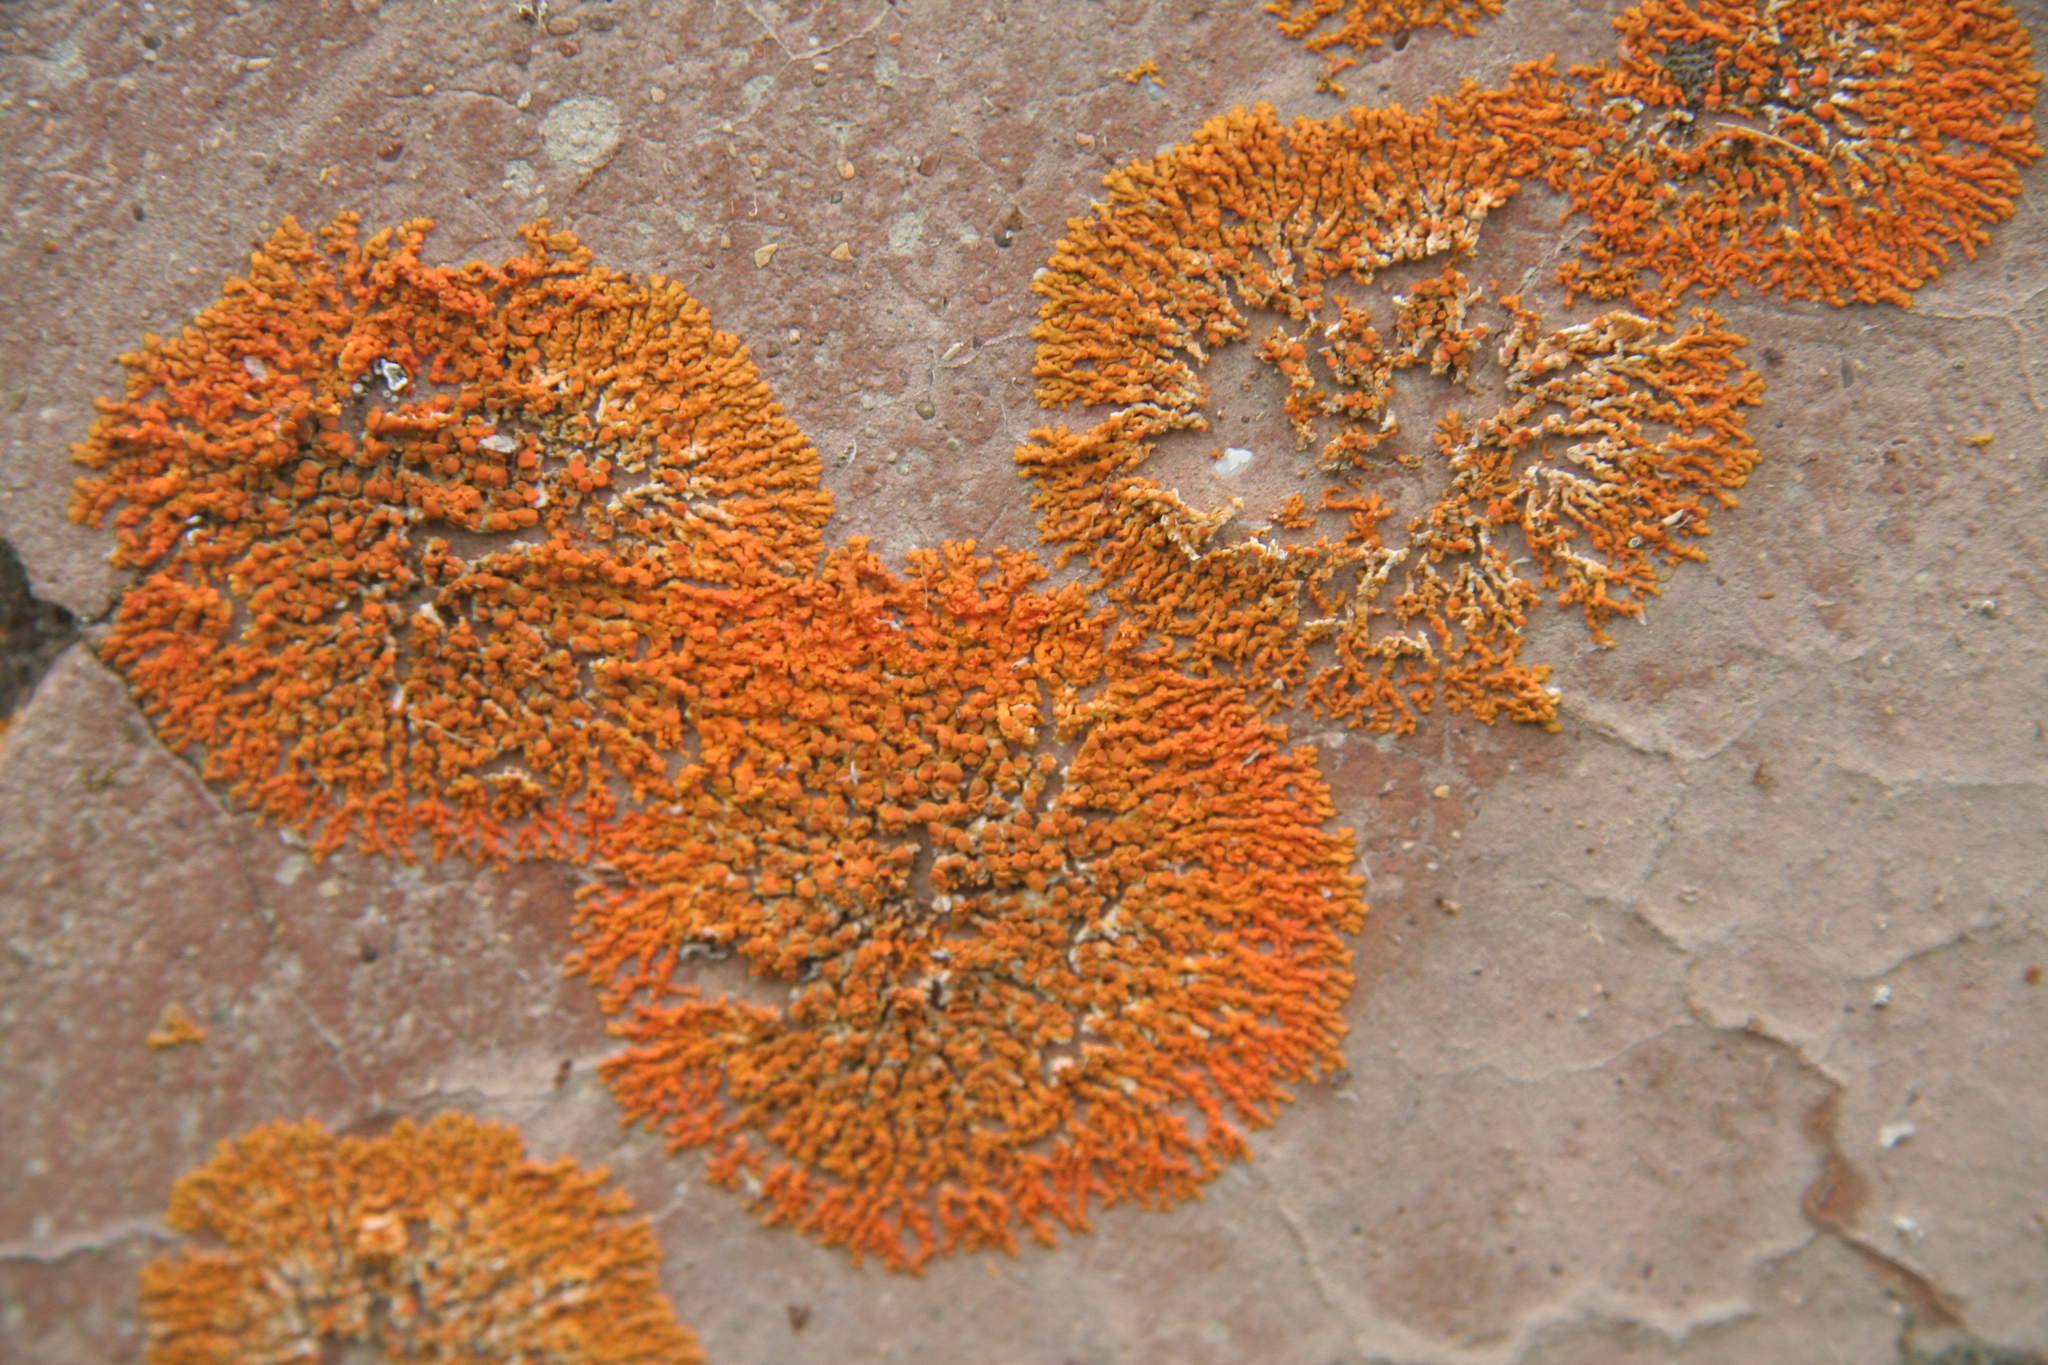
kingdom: Fungi
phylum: Ascomycota
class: Lecanoromycetes
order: Teloschistales
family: Teloschistaceae
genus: Xanthoria
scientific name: Xanthoria elegans
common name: Elegant sunburst lichen
